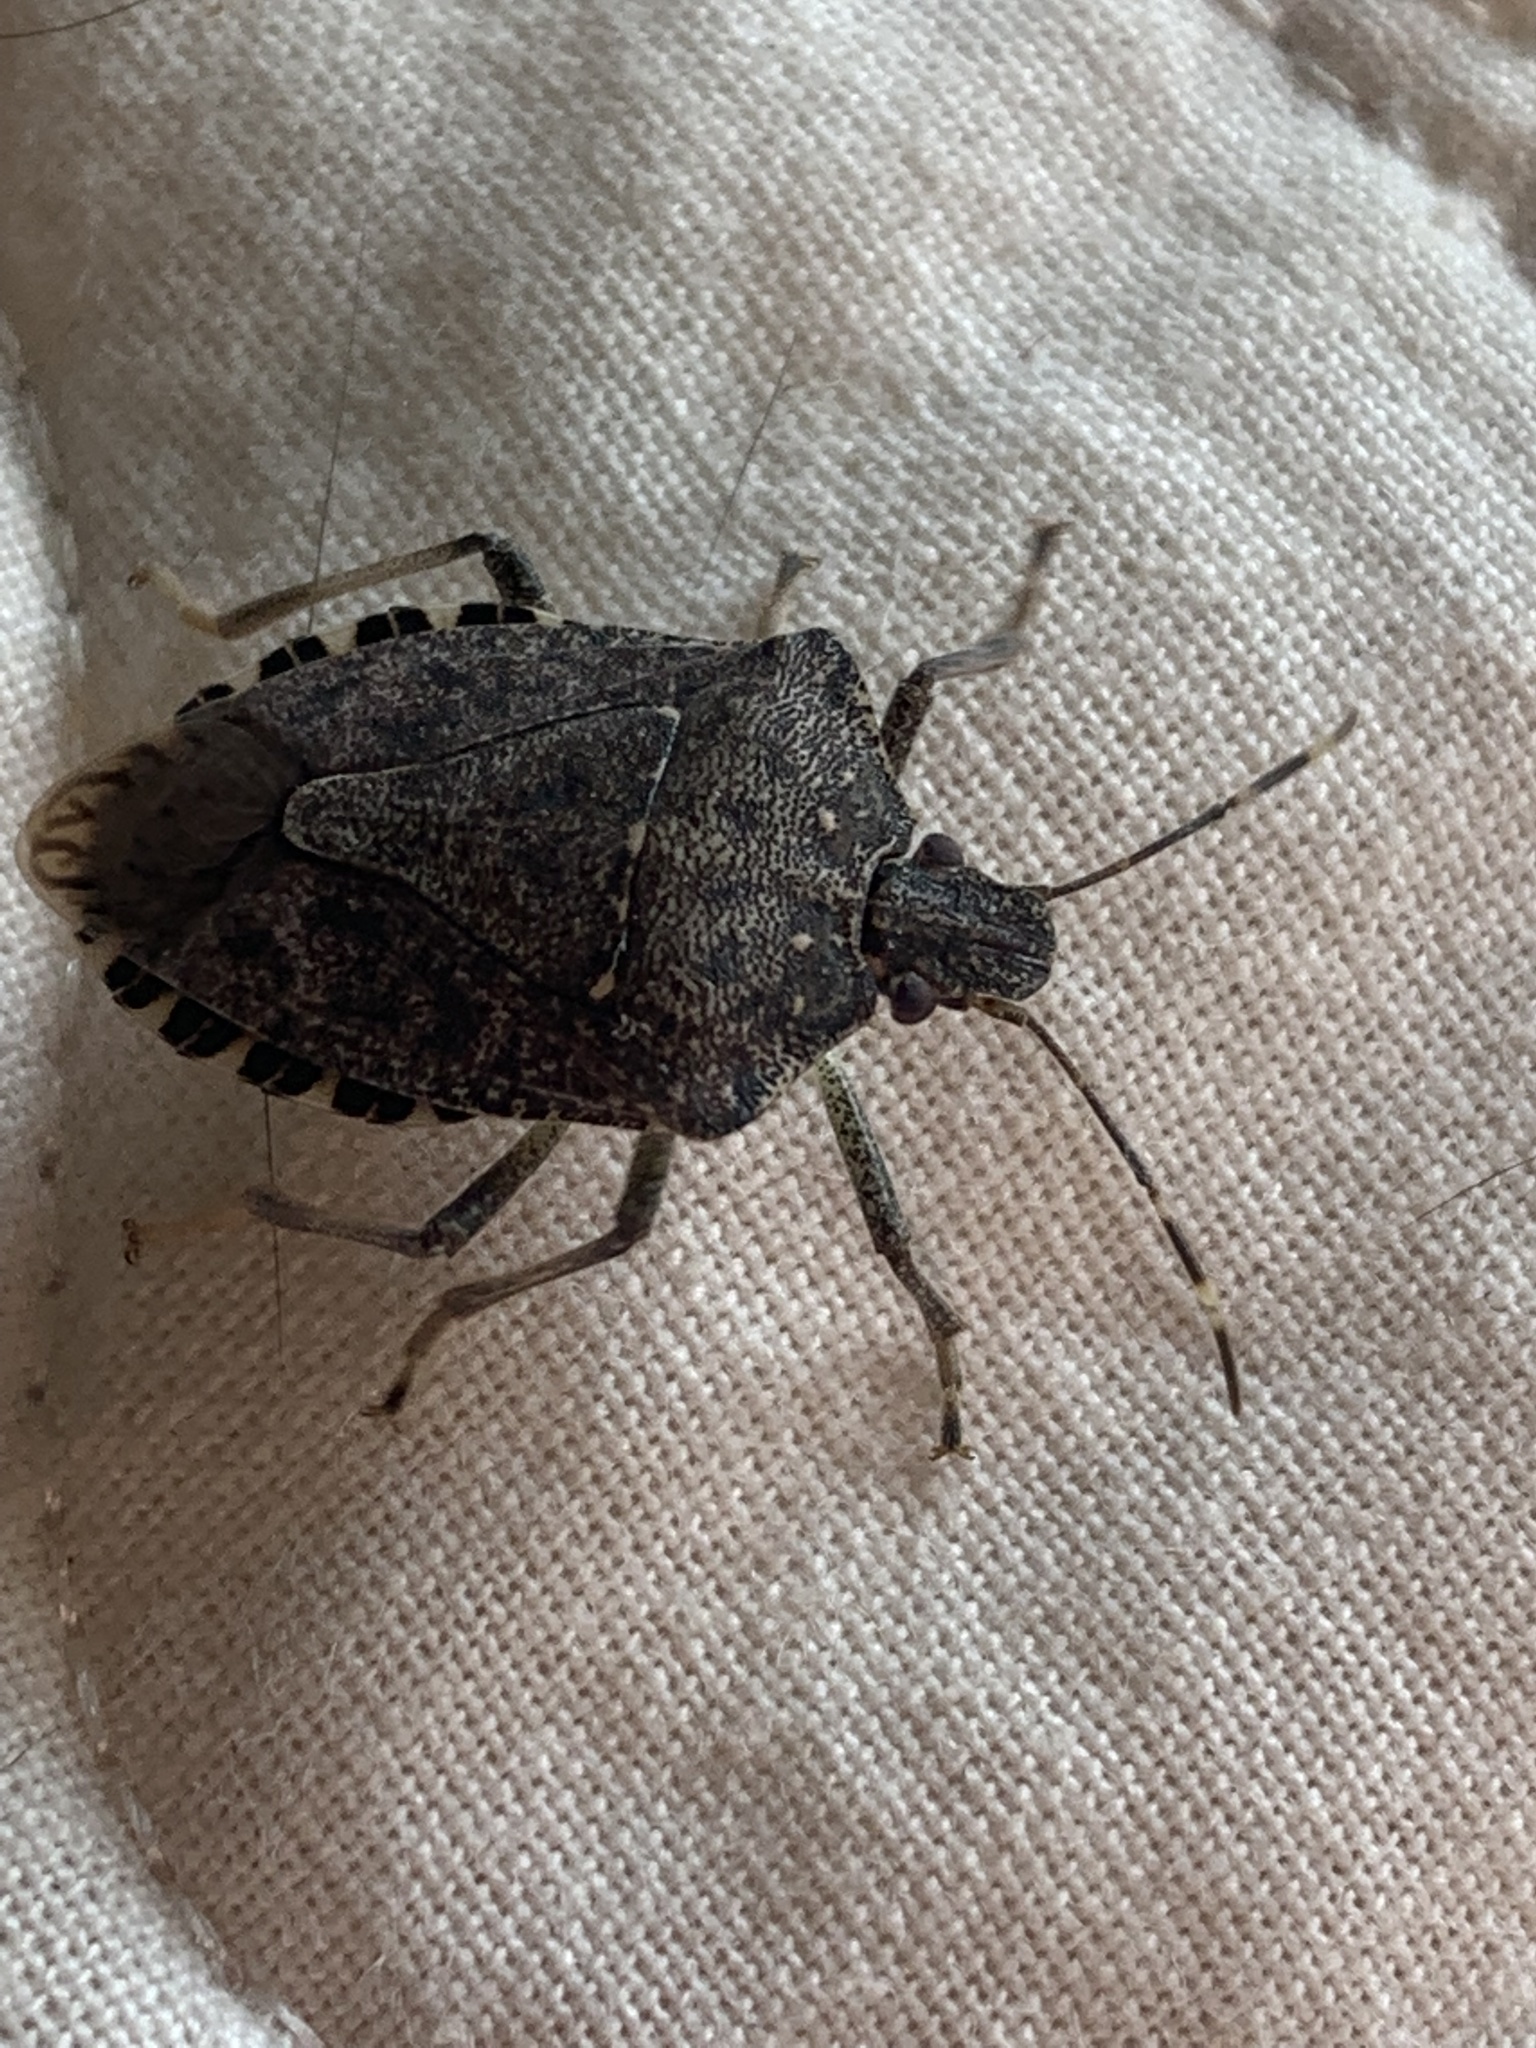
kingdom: Animalia
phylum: Arthropoda
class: Insecta
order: Hemiptera
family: Pentatomidae
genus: Halyomorpha
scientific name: Halyomorpha halys
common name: Brown marmorated stink bug
